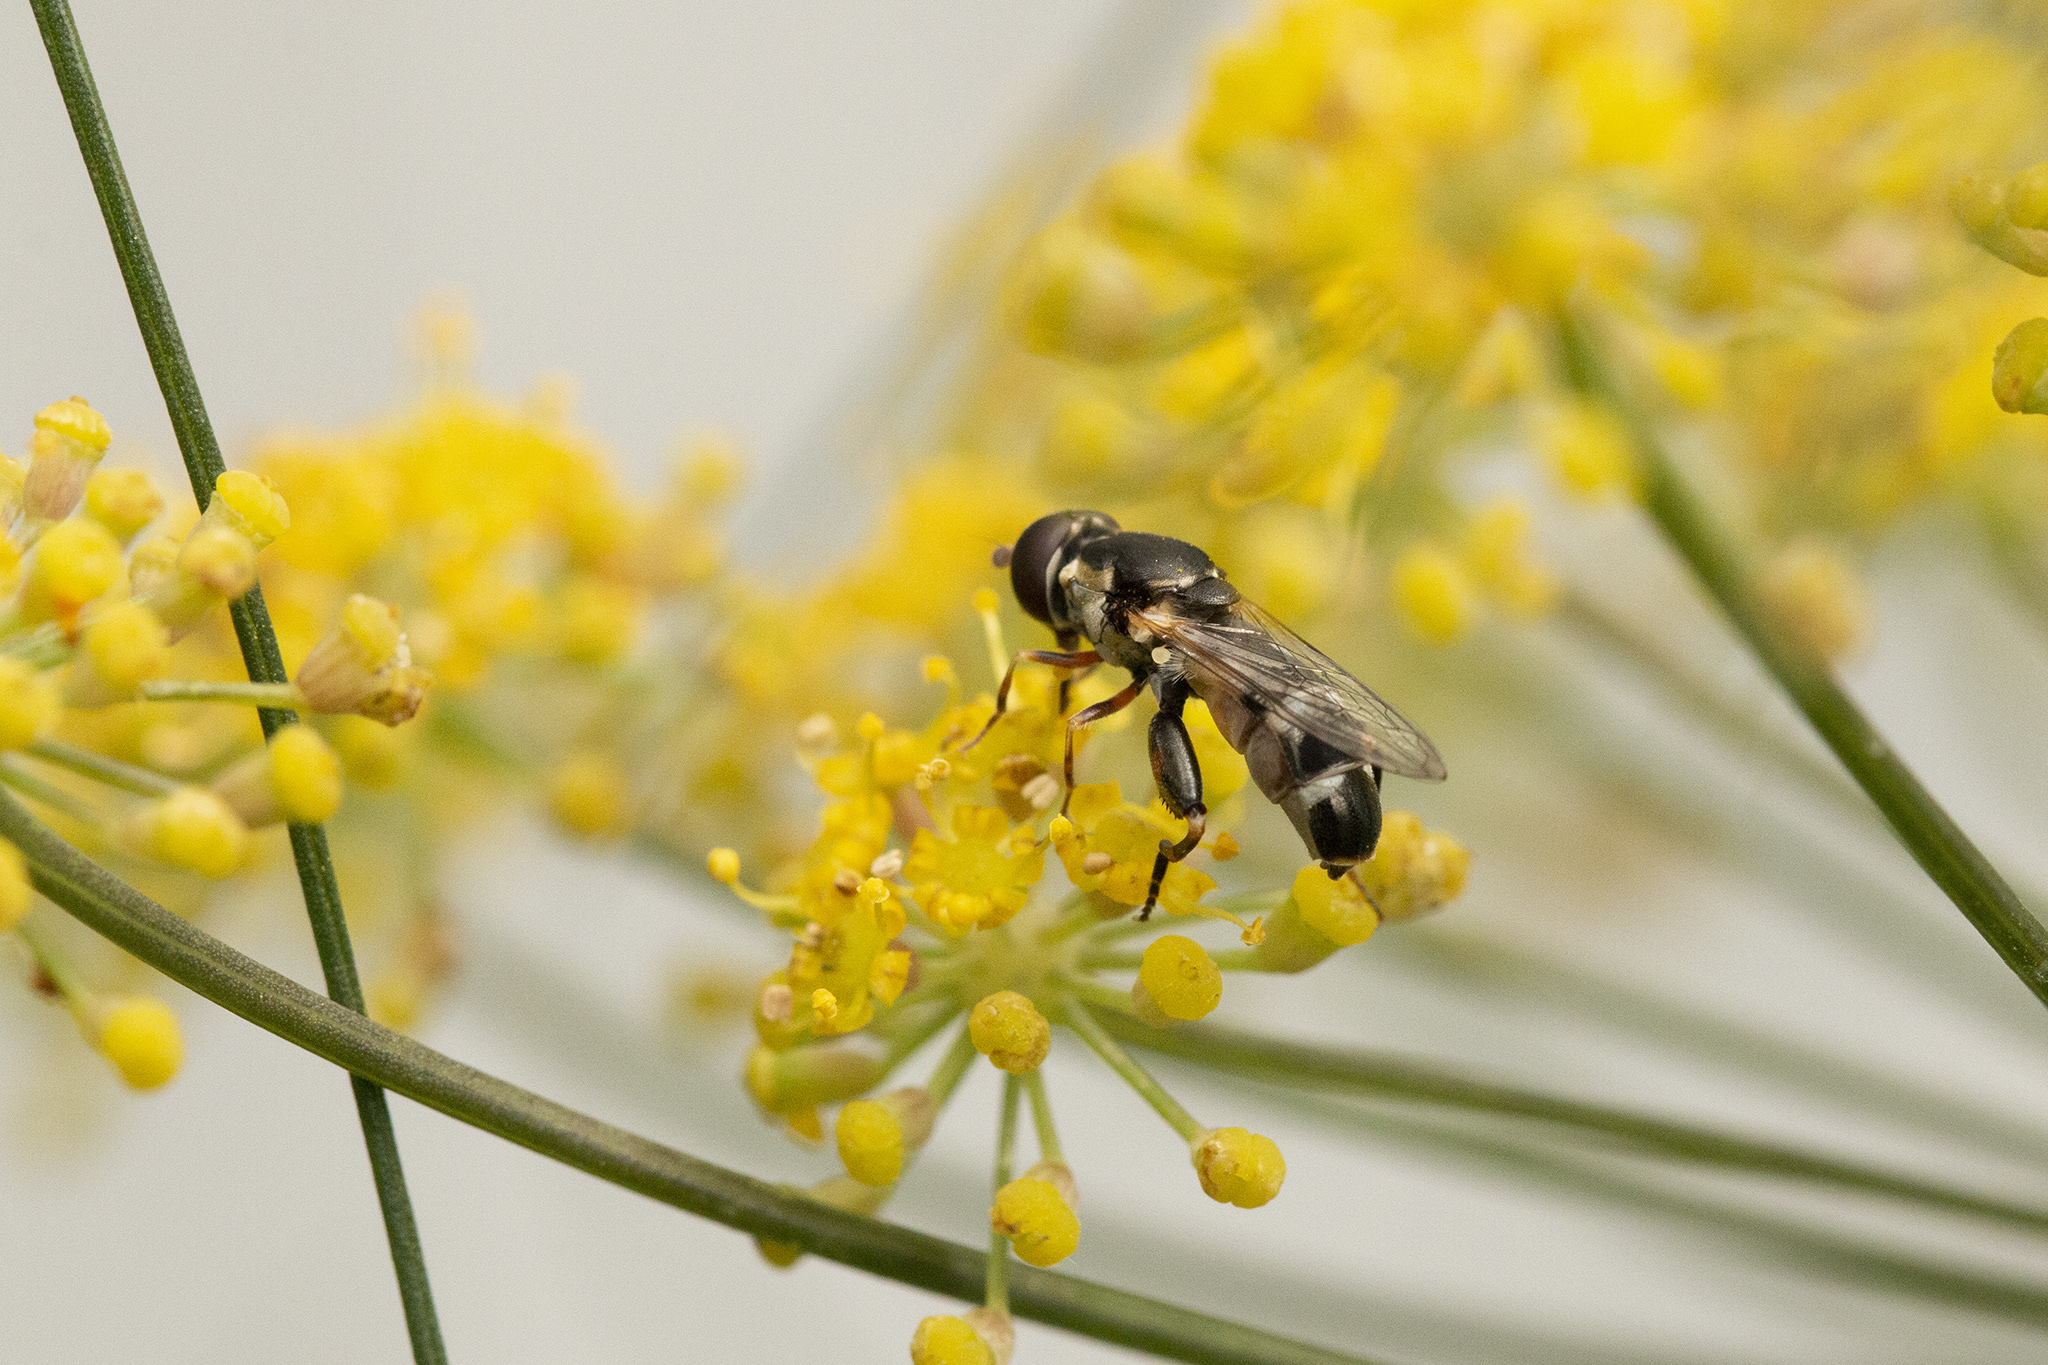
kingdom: Animalia
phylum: Arthropoda
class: Insecta
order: Diptera
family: Syrphidae
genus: Syritta
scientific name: Syritta pipiens
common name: Hover fly
